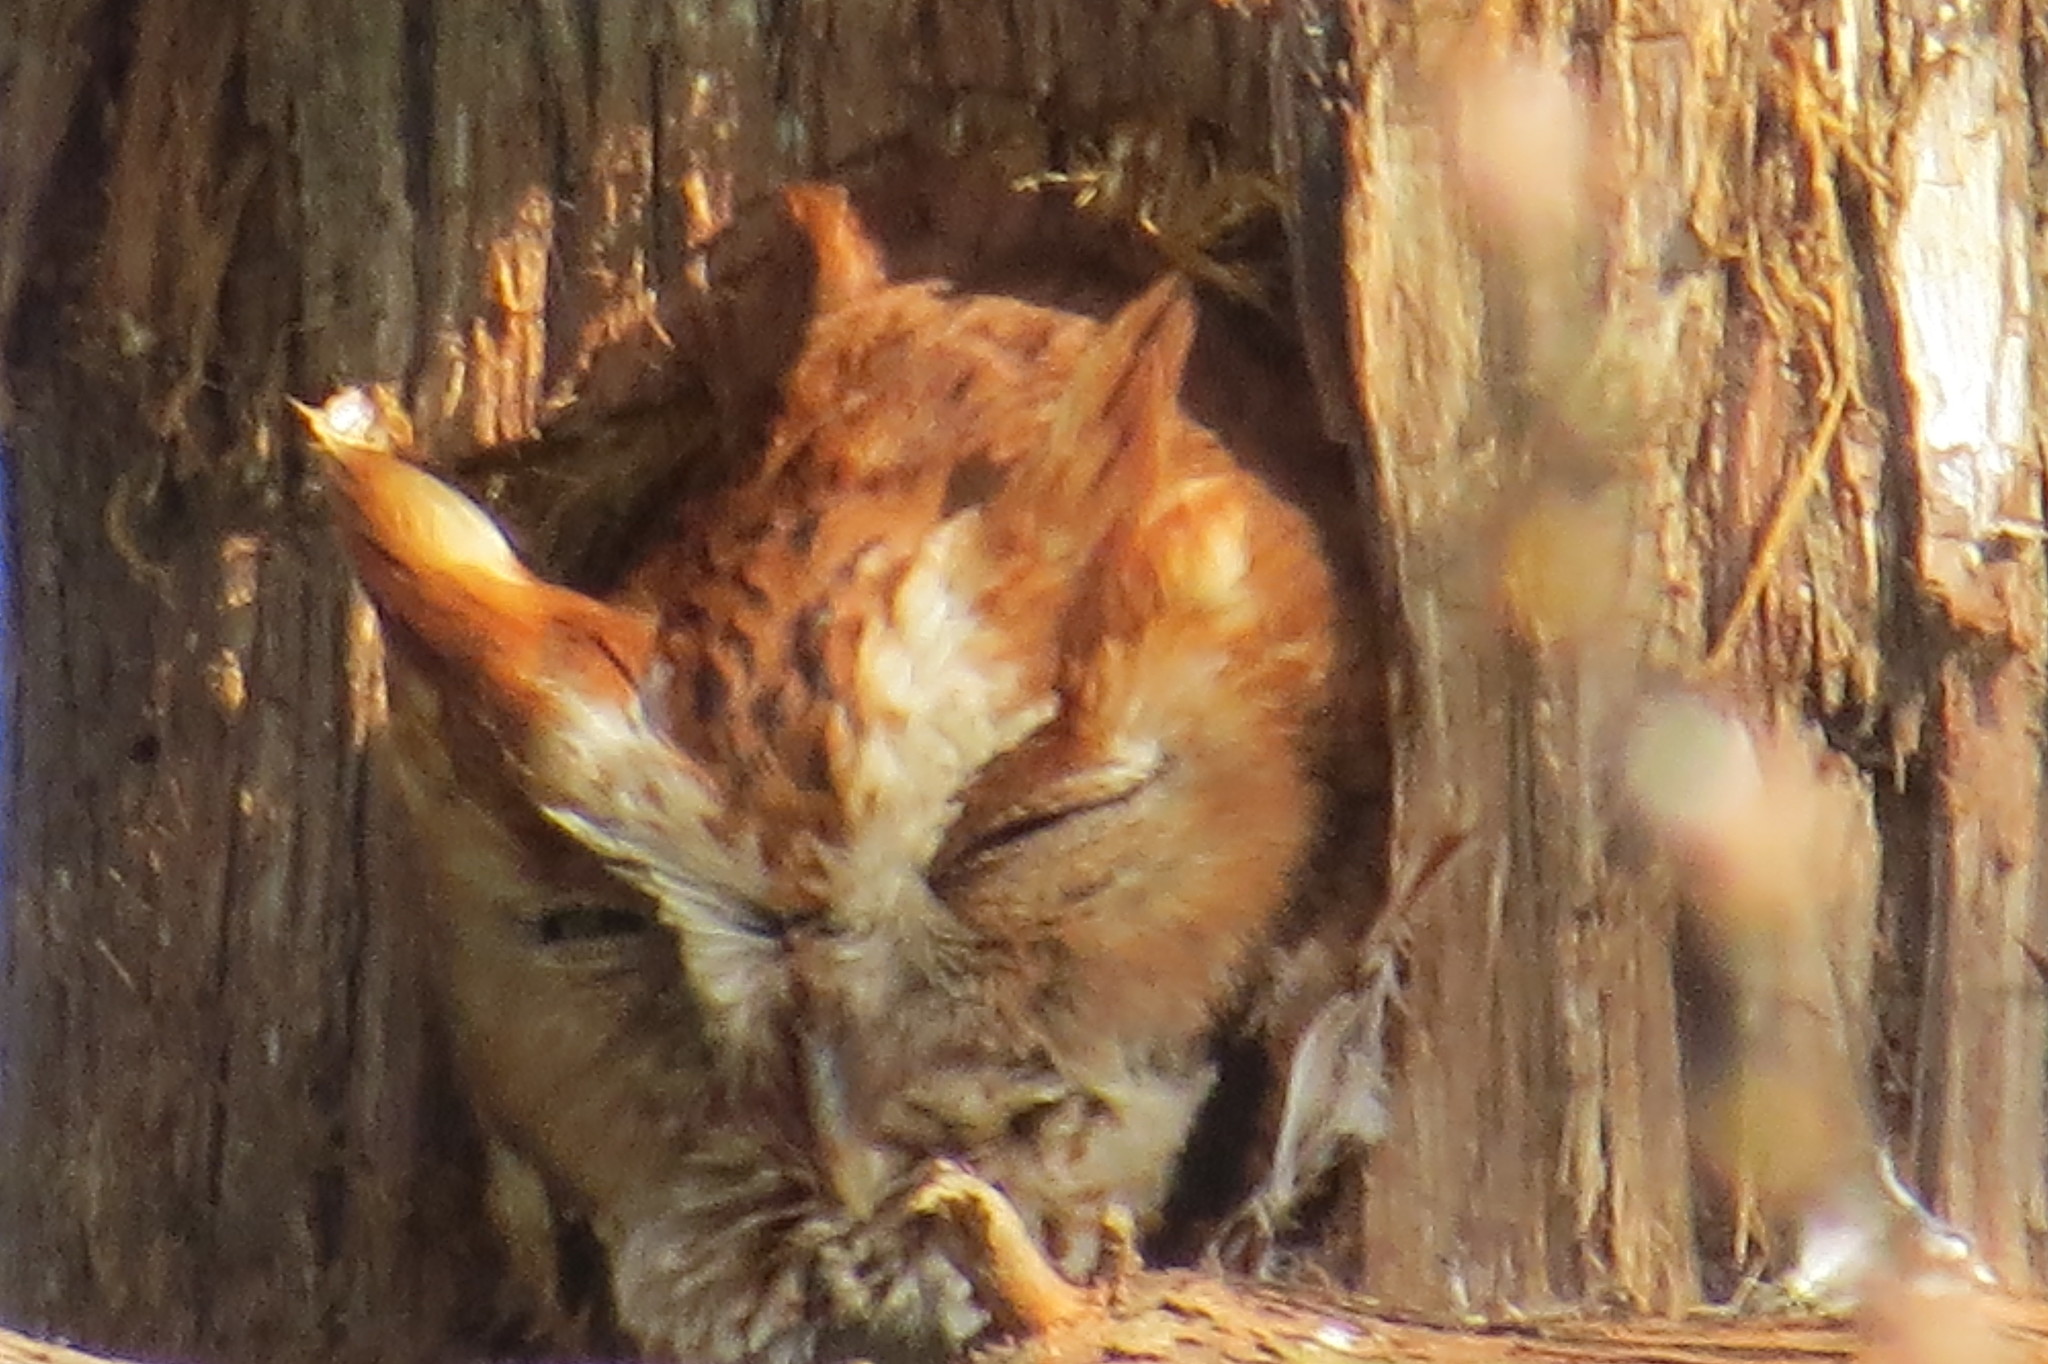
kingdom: Animalia
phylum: Chordata
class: Aves
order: Strigiformes
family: Strigidae
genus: Megascops
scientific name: Megascops asio
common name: Eastern screech-owl
